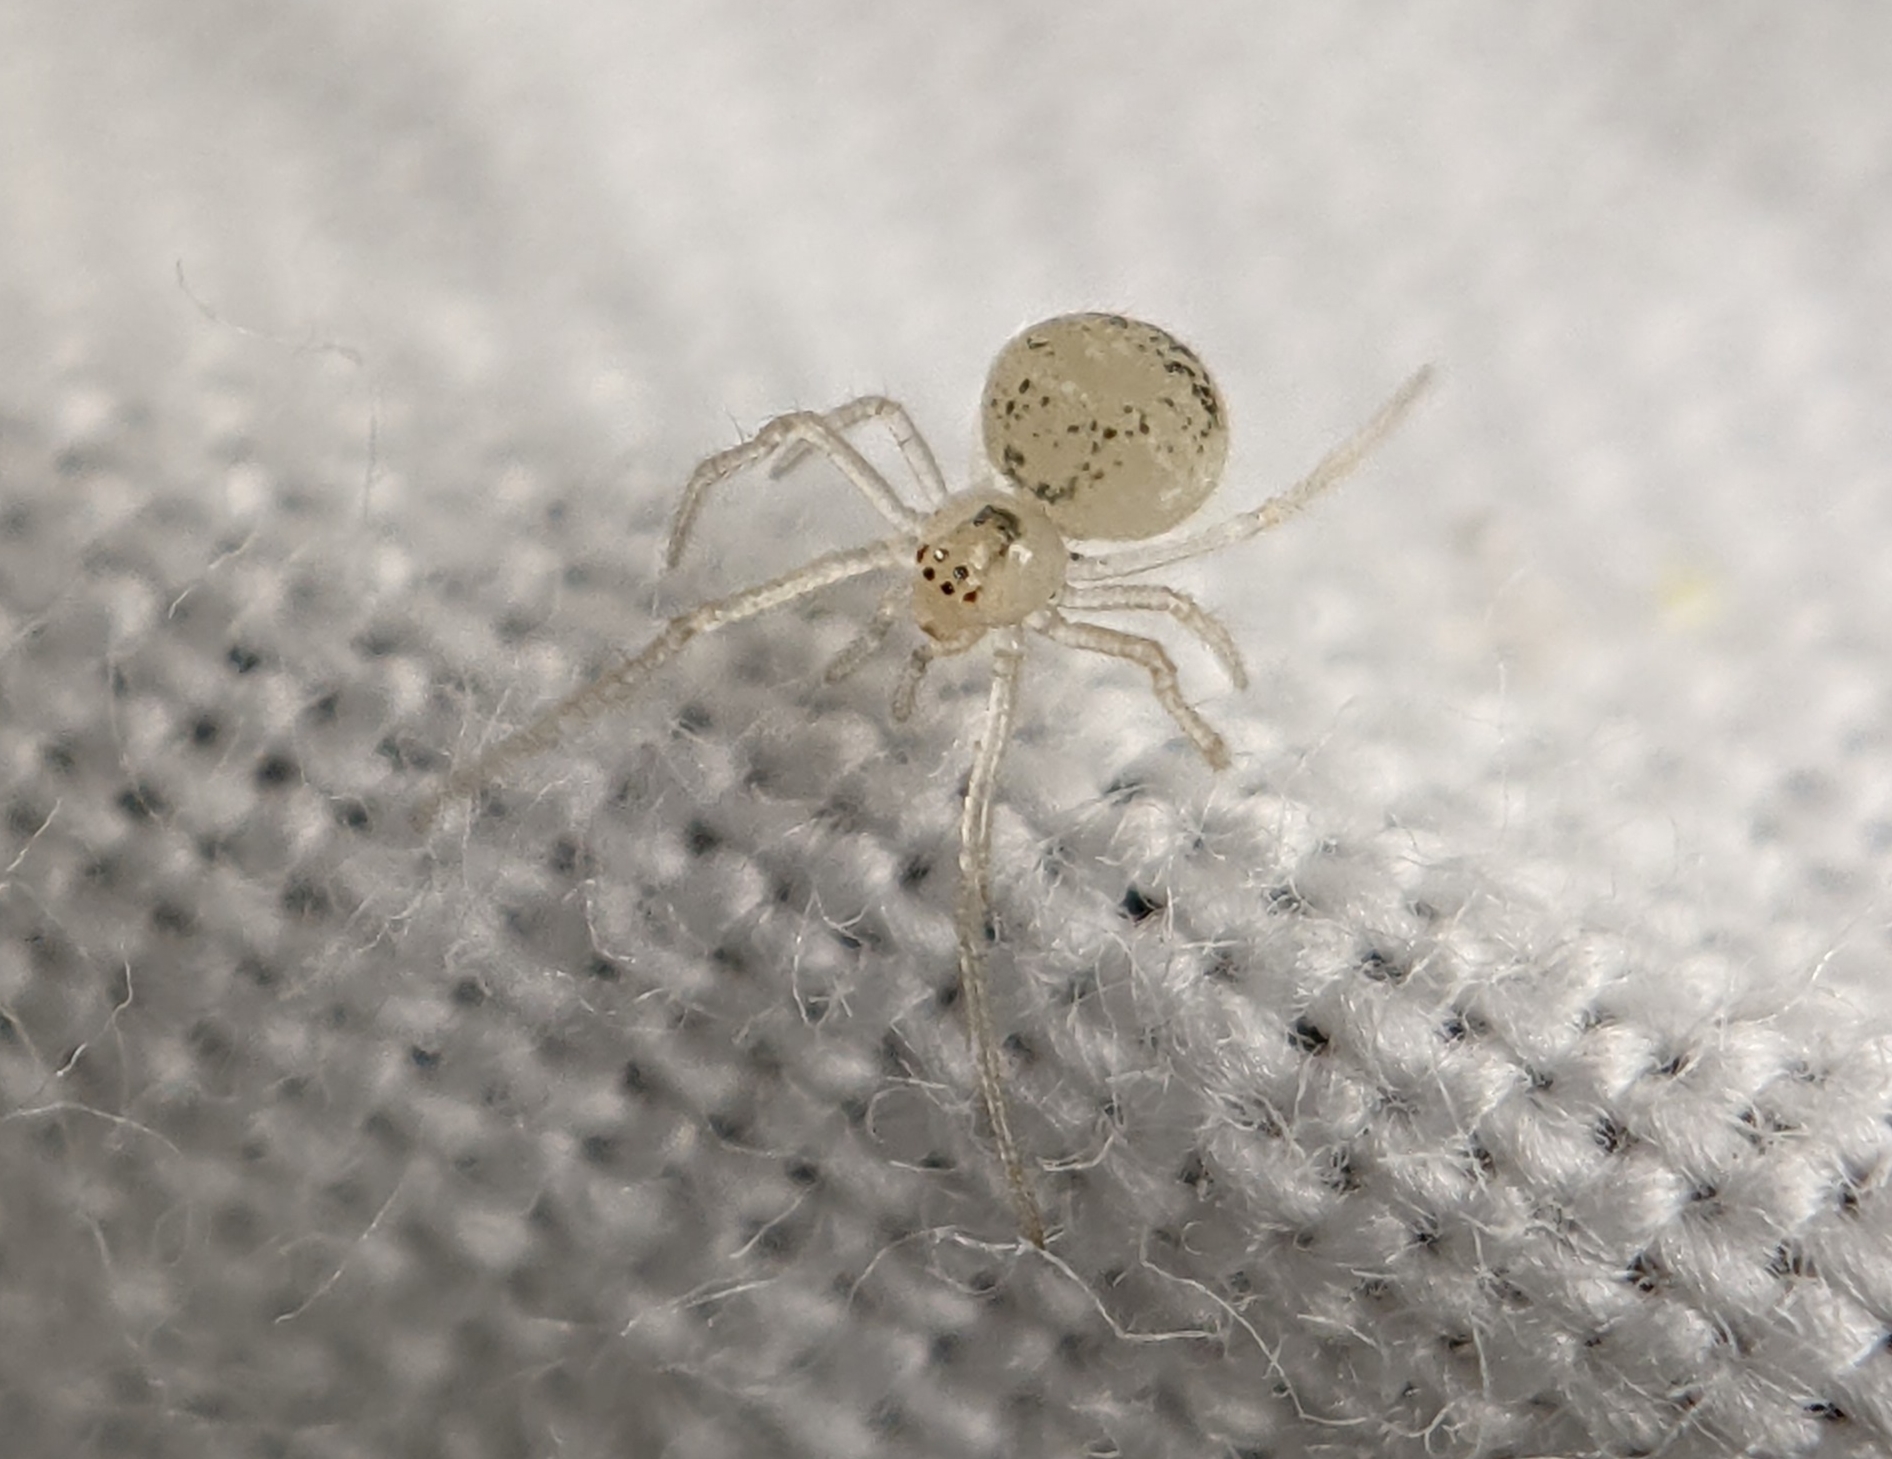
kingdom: Animalia
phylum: Arthropoda
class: Arachnida
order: Araneae
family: Theridiidae
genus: Paidiscura
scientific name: Paidiscura pallens
